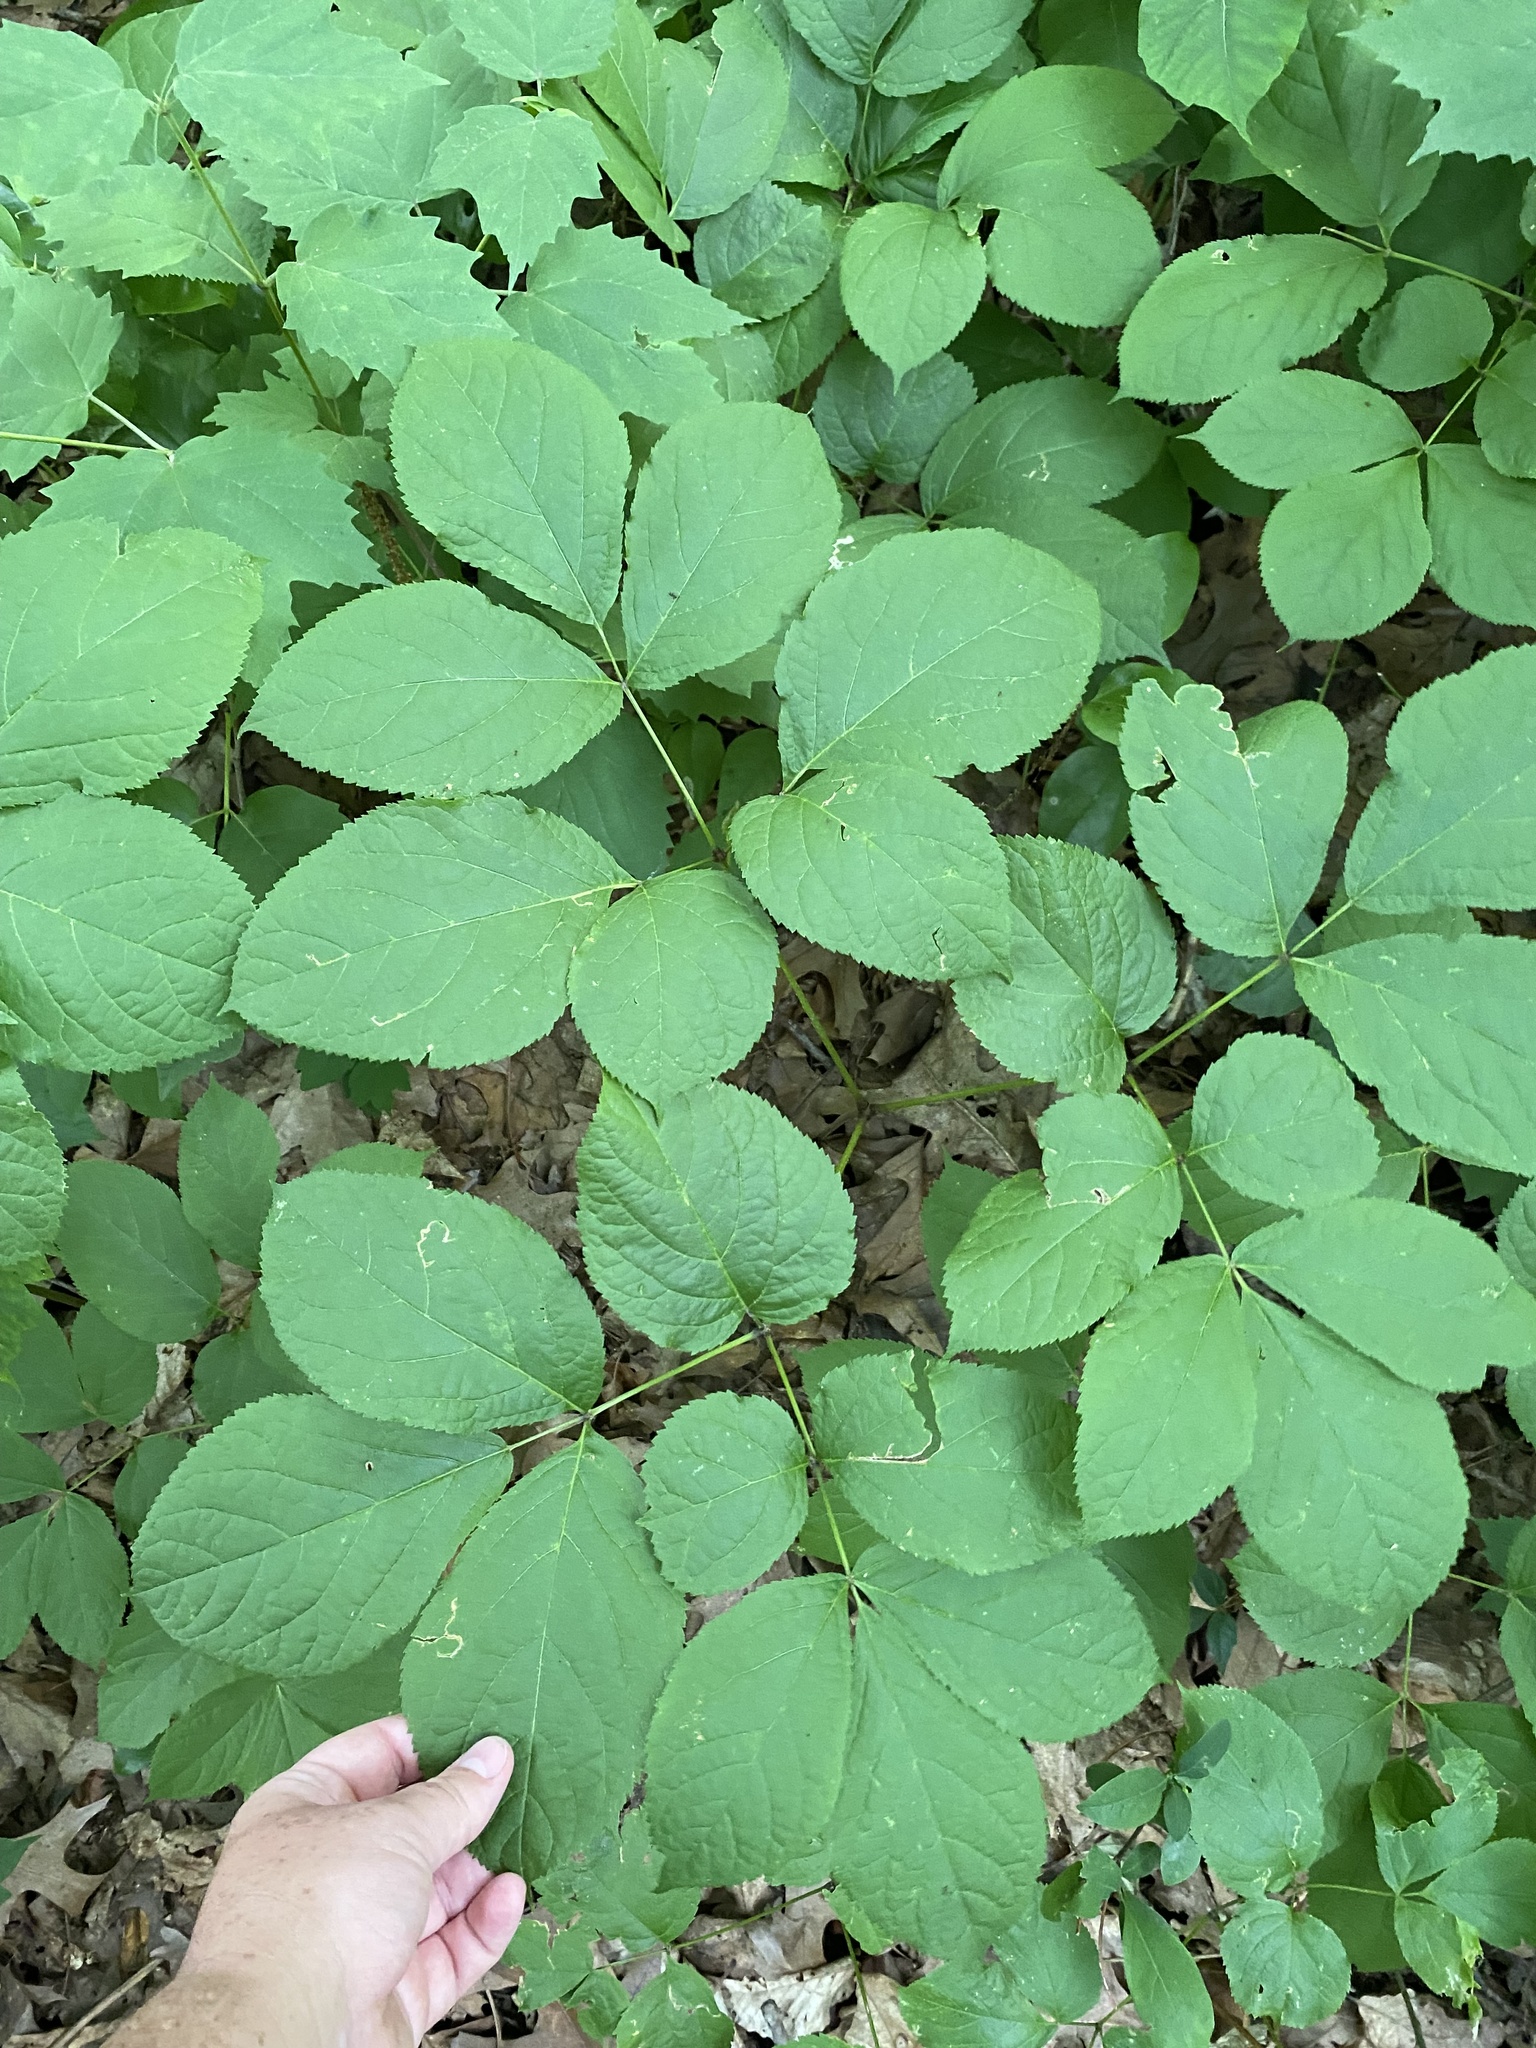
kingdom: Plantae
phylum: Tracheophyta
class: Magnoliopsida
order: Apiales
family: Araliaceae
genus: Aralia
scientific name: Aralia nudicaulis
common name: Wild sarsaparilla
